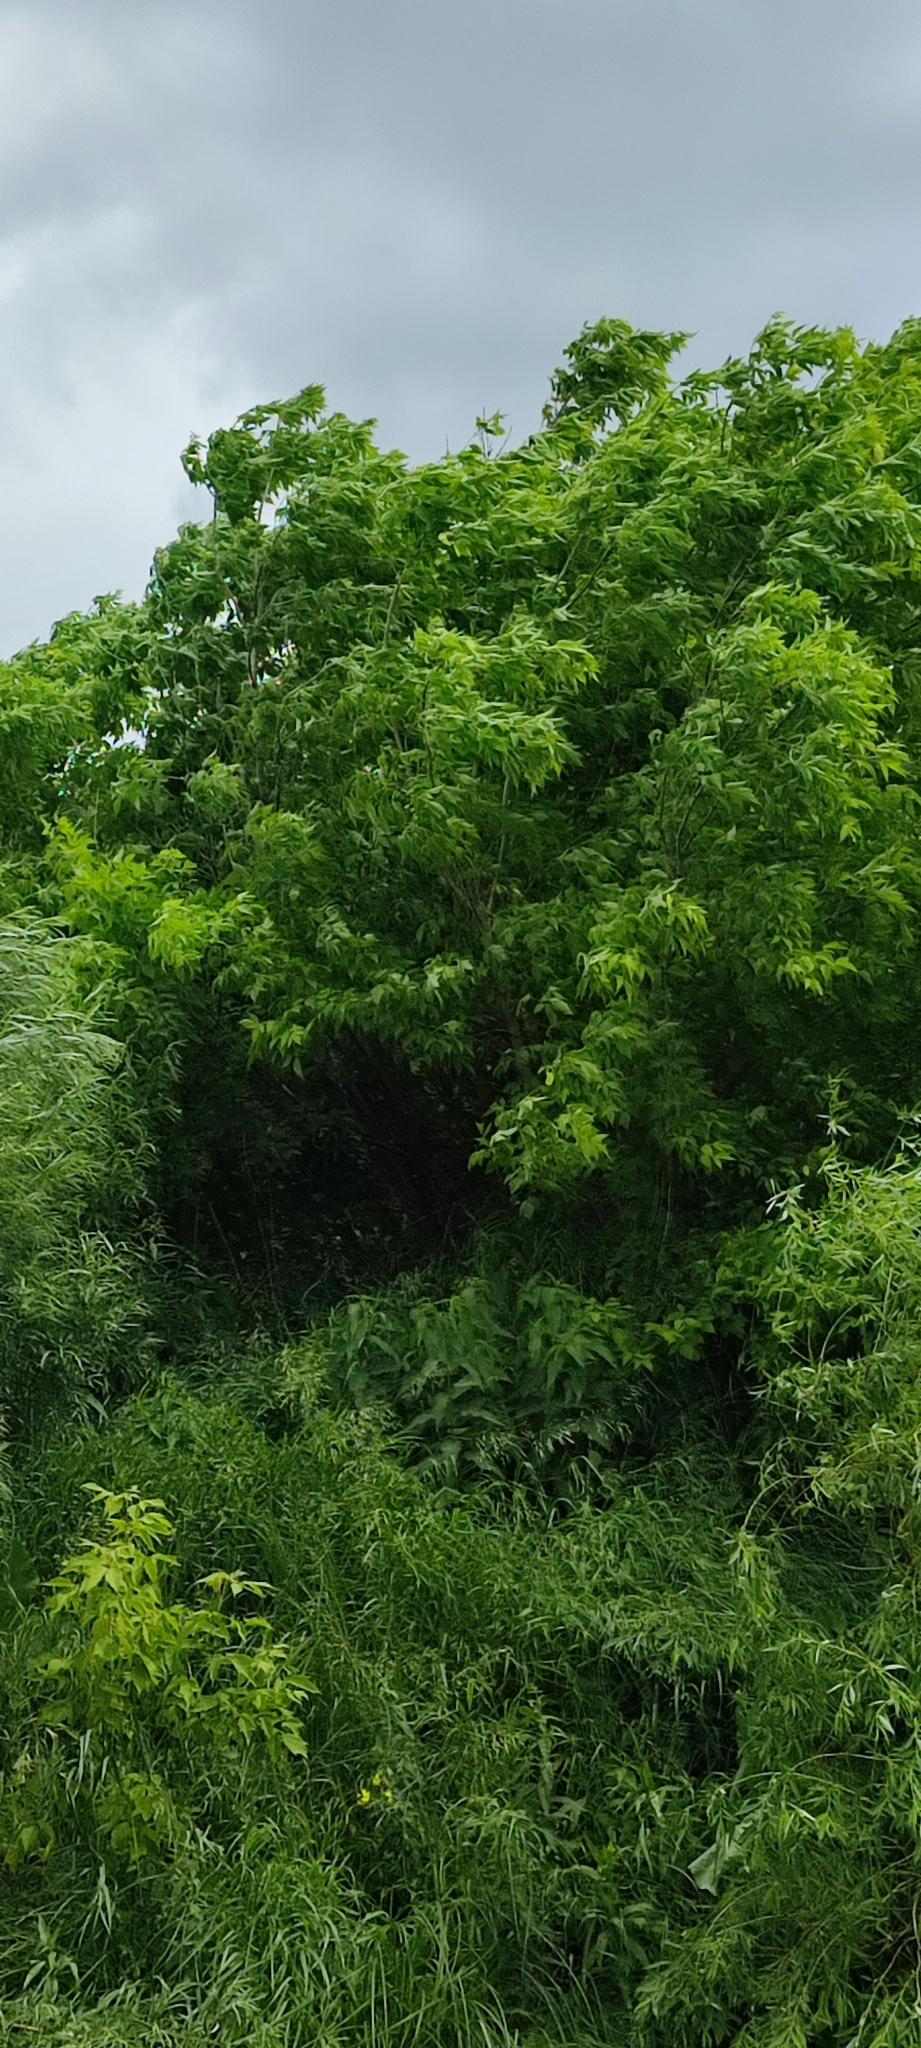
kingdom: Plantae
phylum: Tracheophyta
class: Magnoliopsida
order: Sapindales
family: Sapindaceae
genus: Acer
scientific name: Acer negundo
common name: Ashleaf maple
